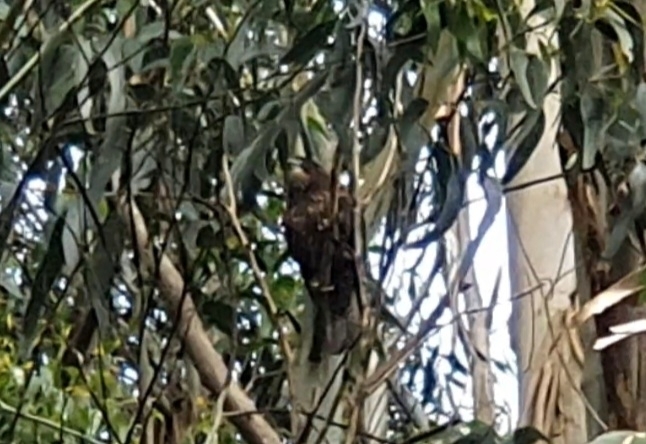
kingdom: Animalia
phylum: Chordata
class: Aves
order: Falconiformes
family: Falconidae
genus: Falco
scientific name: Falco novaeseelandiae
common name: New zealand falcon
